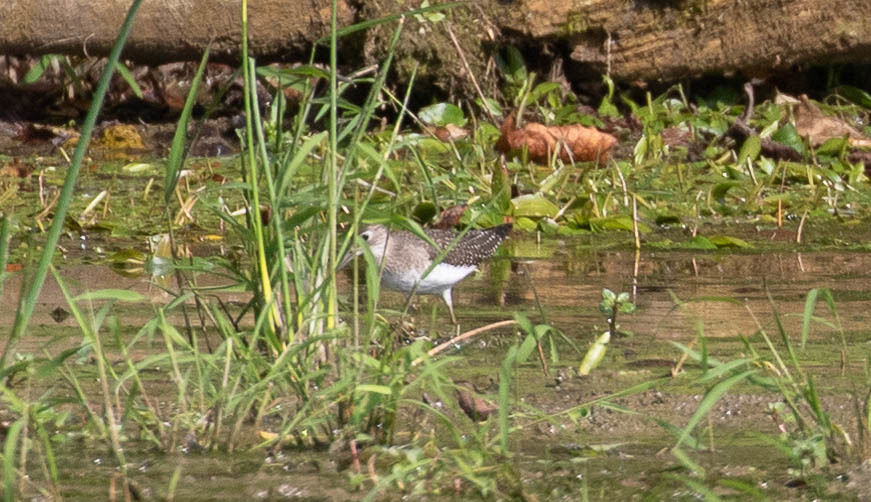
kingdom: Animalia
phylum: Chordata
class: Aves
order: Charadriiformes
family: Scolopacidae
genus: Tringa
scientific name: Tringa solitaria
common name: Solitary sandpiper
